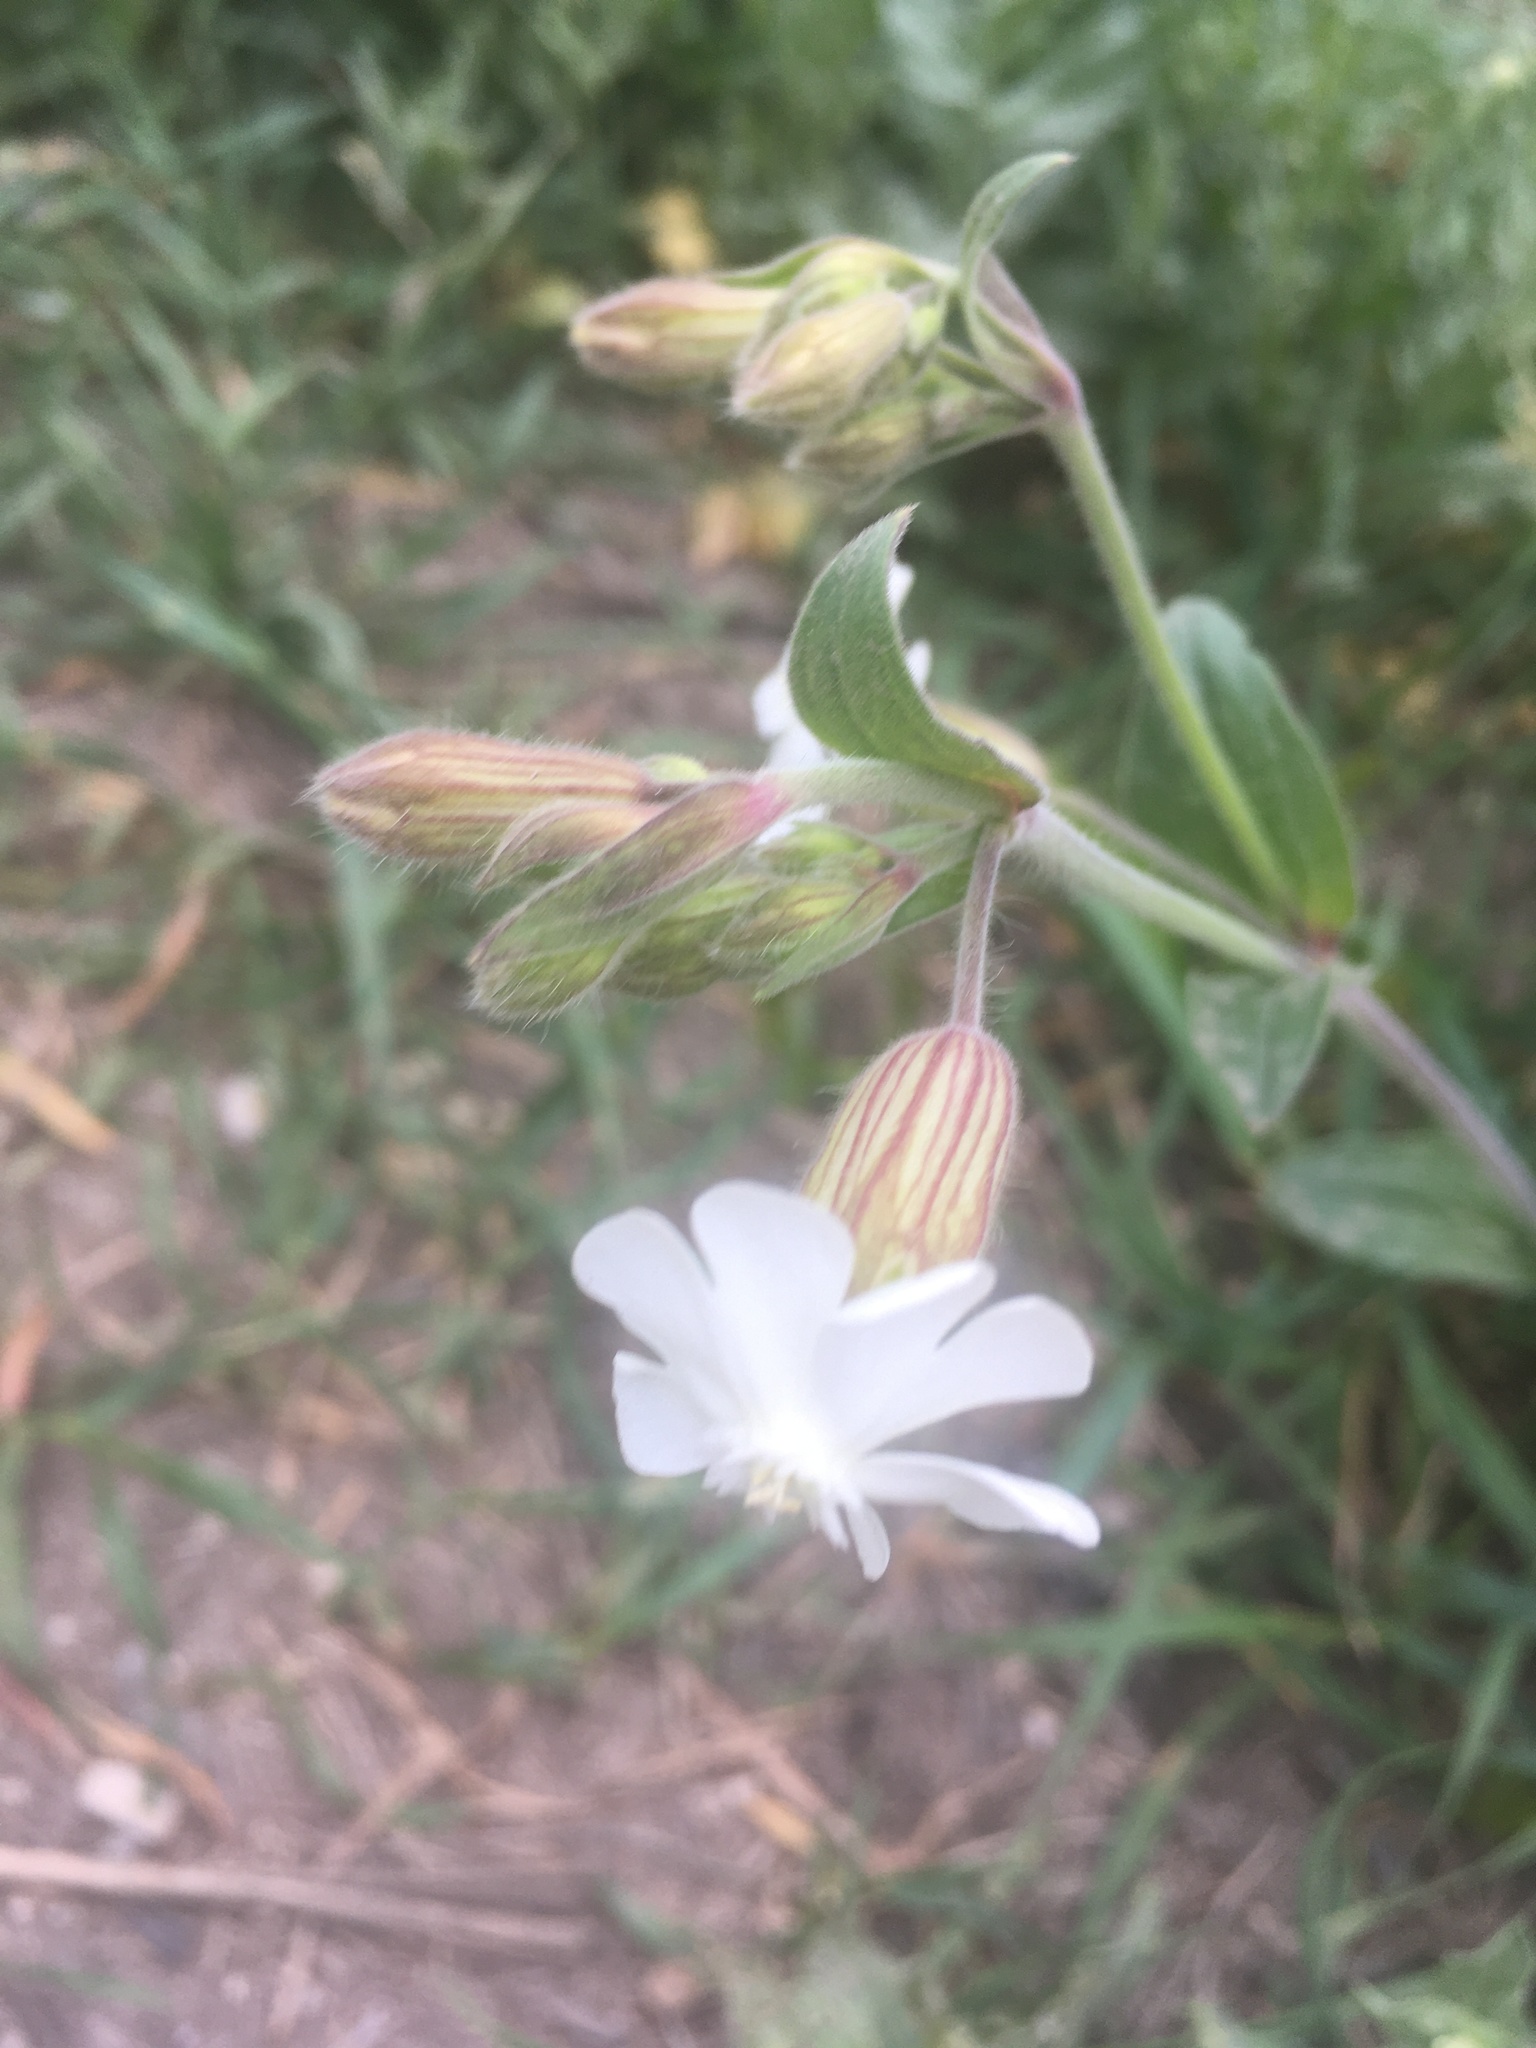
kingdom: Plantae
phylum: Tracheophyta
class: Magnoliopsida
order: Caryophyllales
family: Caryophyllaceae
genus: Silene
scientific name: Silene latifolia
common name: White campion
